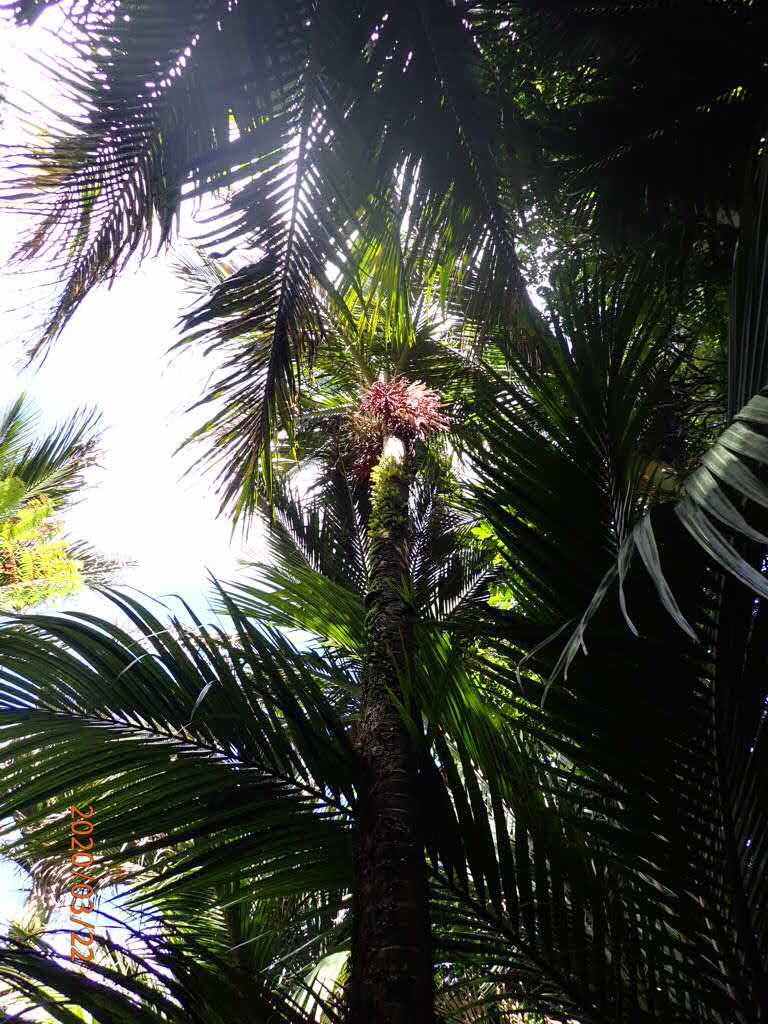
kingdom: Plantae
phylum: Tracheophyta
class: Liliopsida
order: Arecales
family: Arecaceae
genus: Rhopalostylis
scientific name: Rhopalostylis sapida
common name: Feather-duster palm
